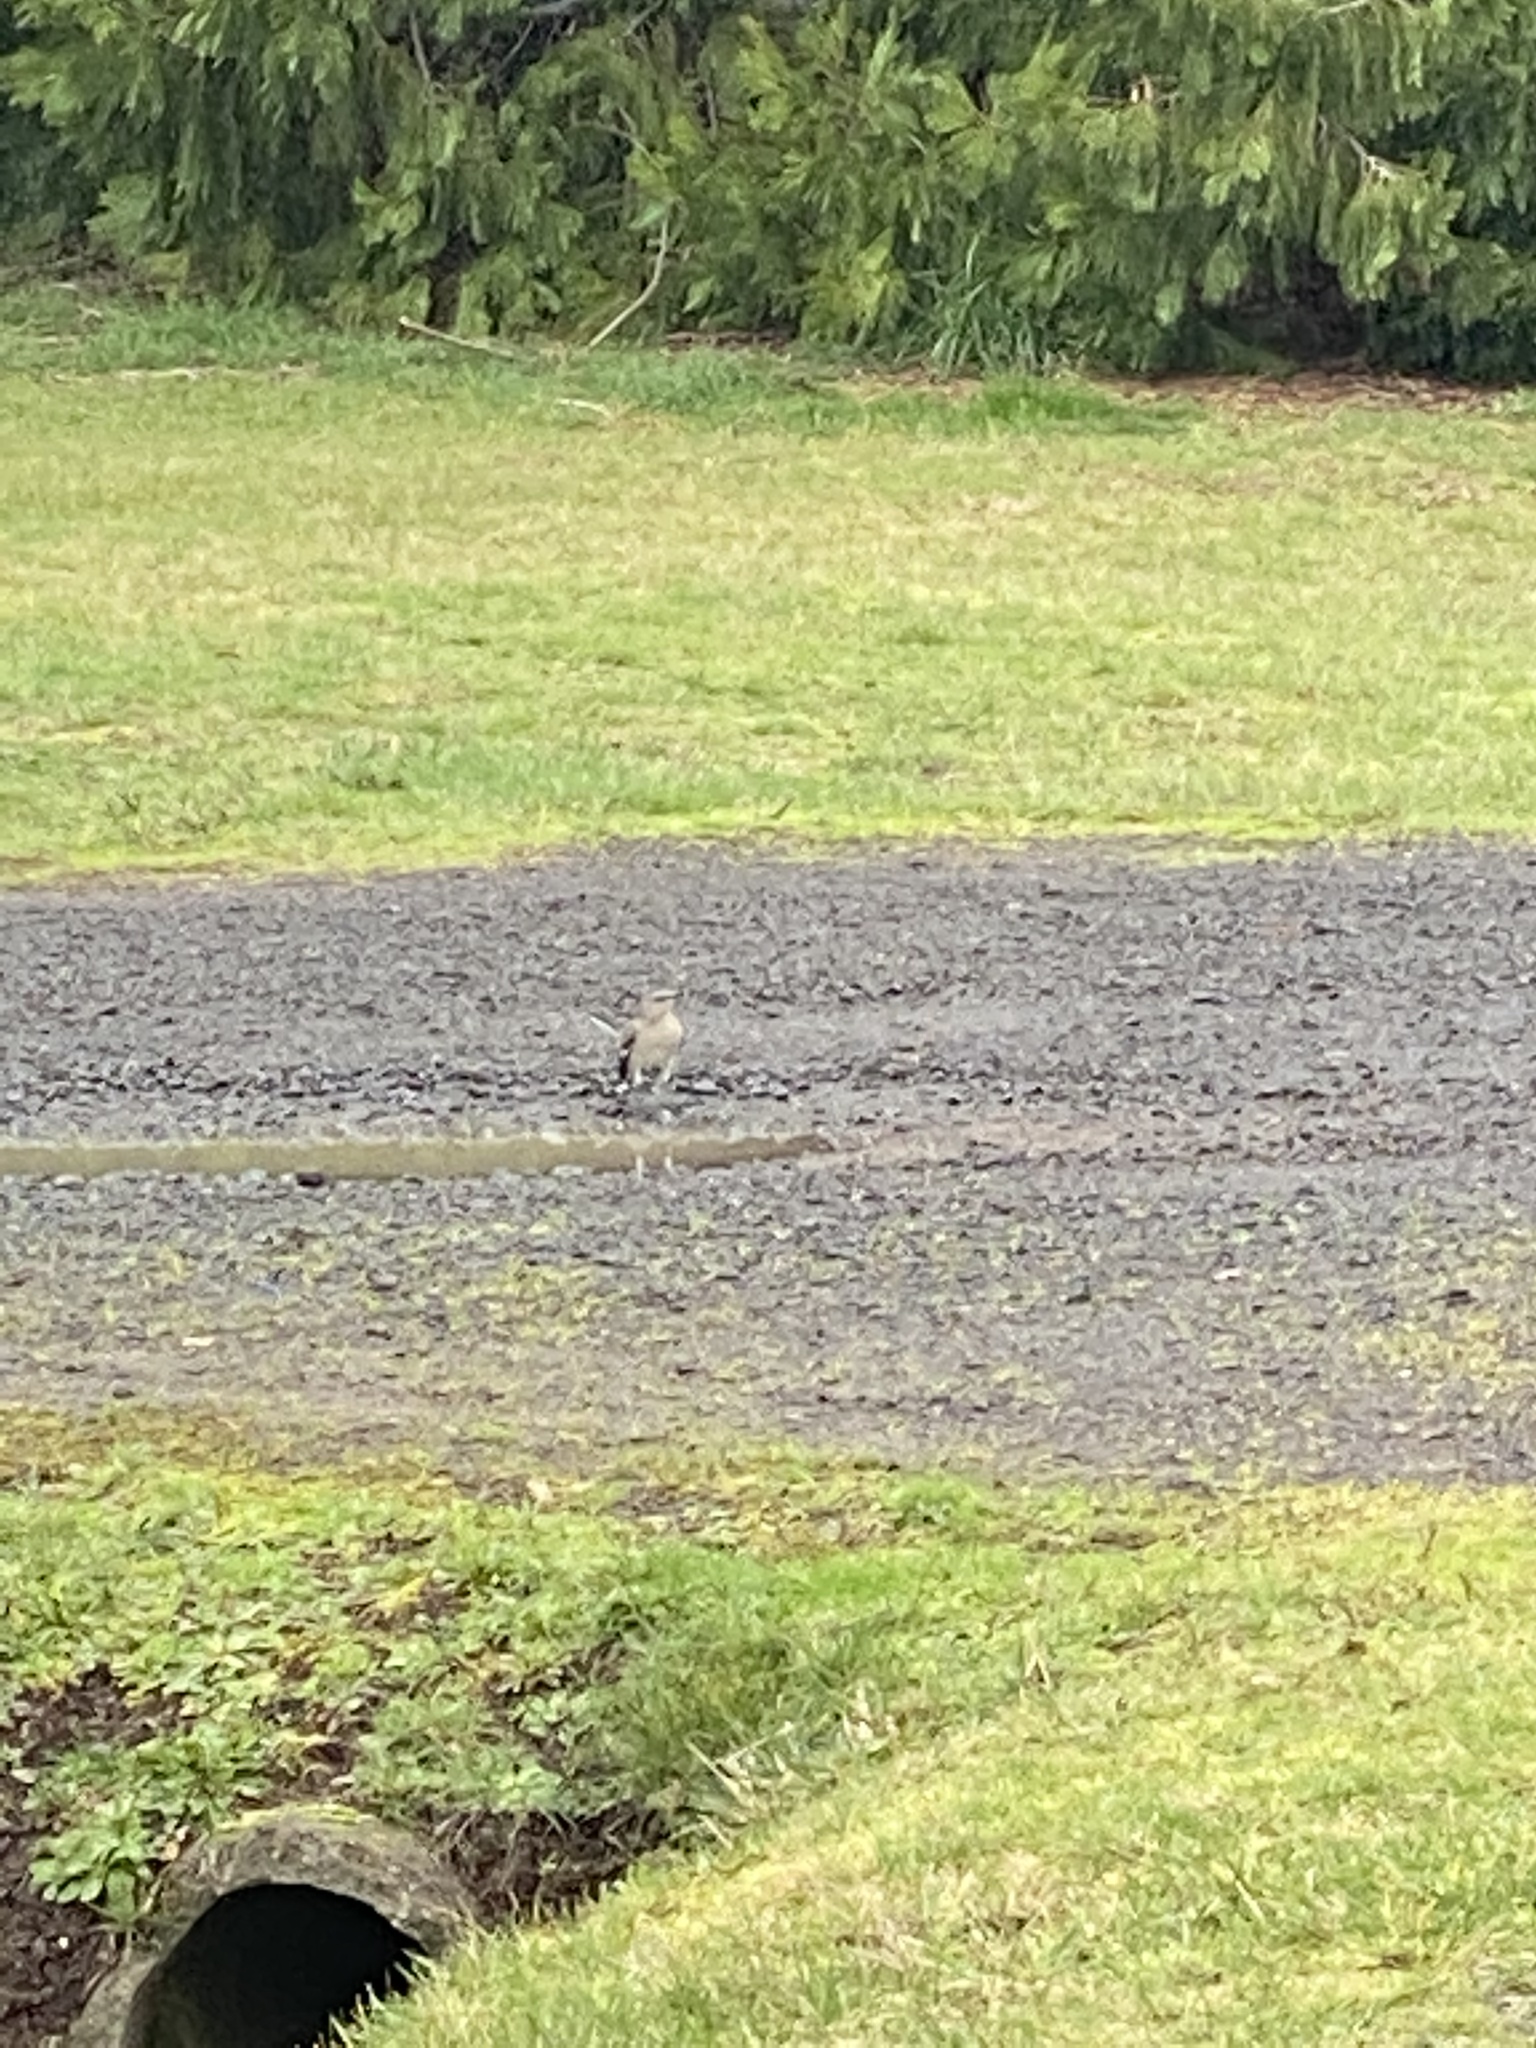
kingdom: Animalia
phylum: Chordata
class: Aves
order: Passeriformes
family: Mimidae
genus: Mimus
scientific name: Mimus polyglottos
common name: Northern mockingbird
